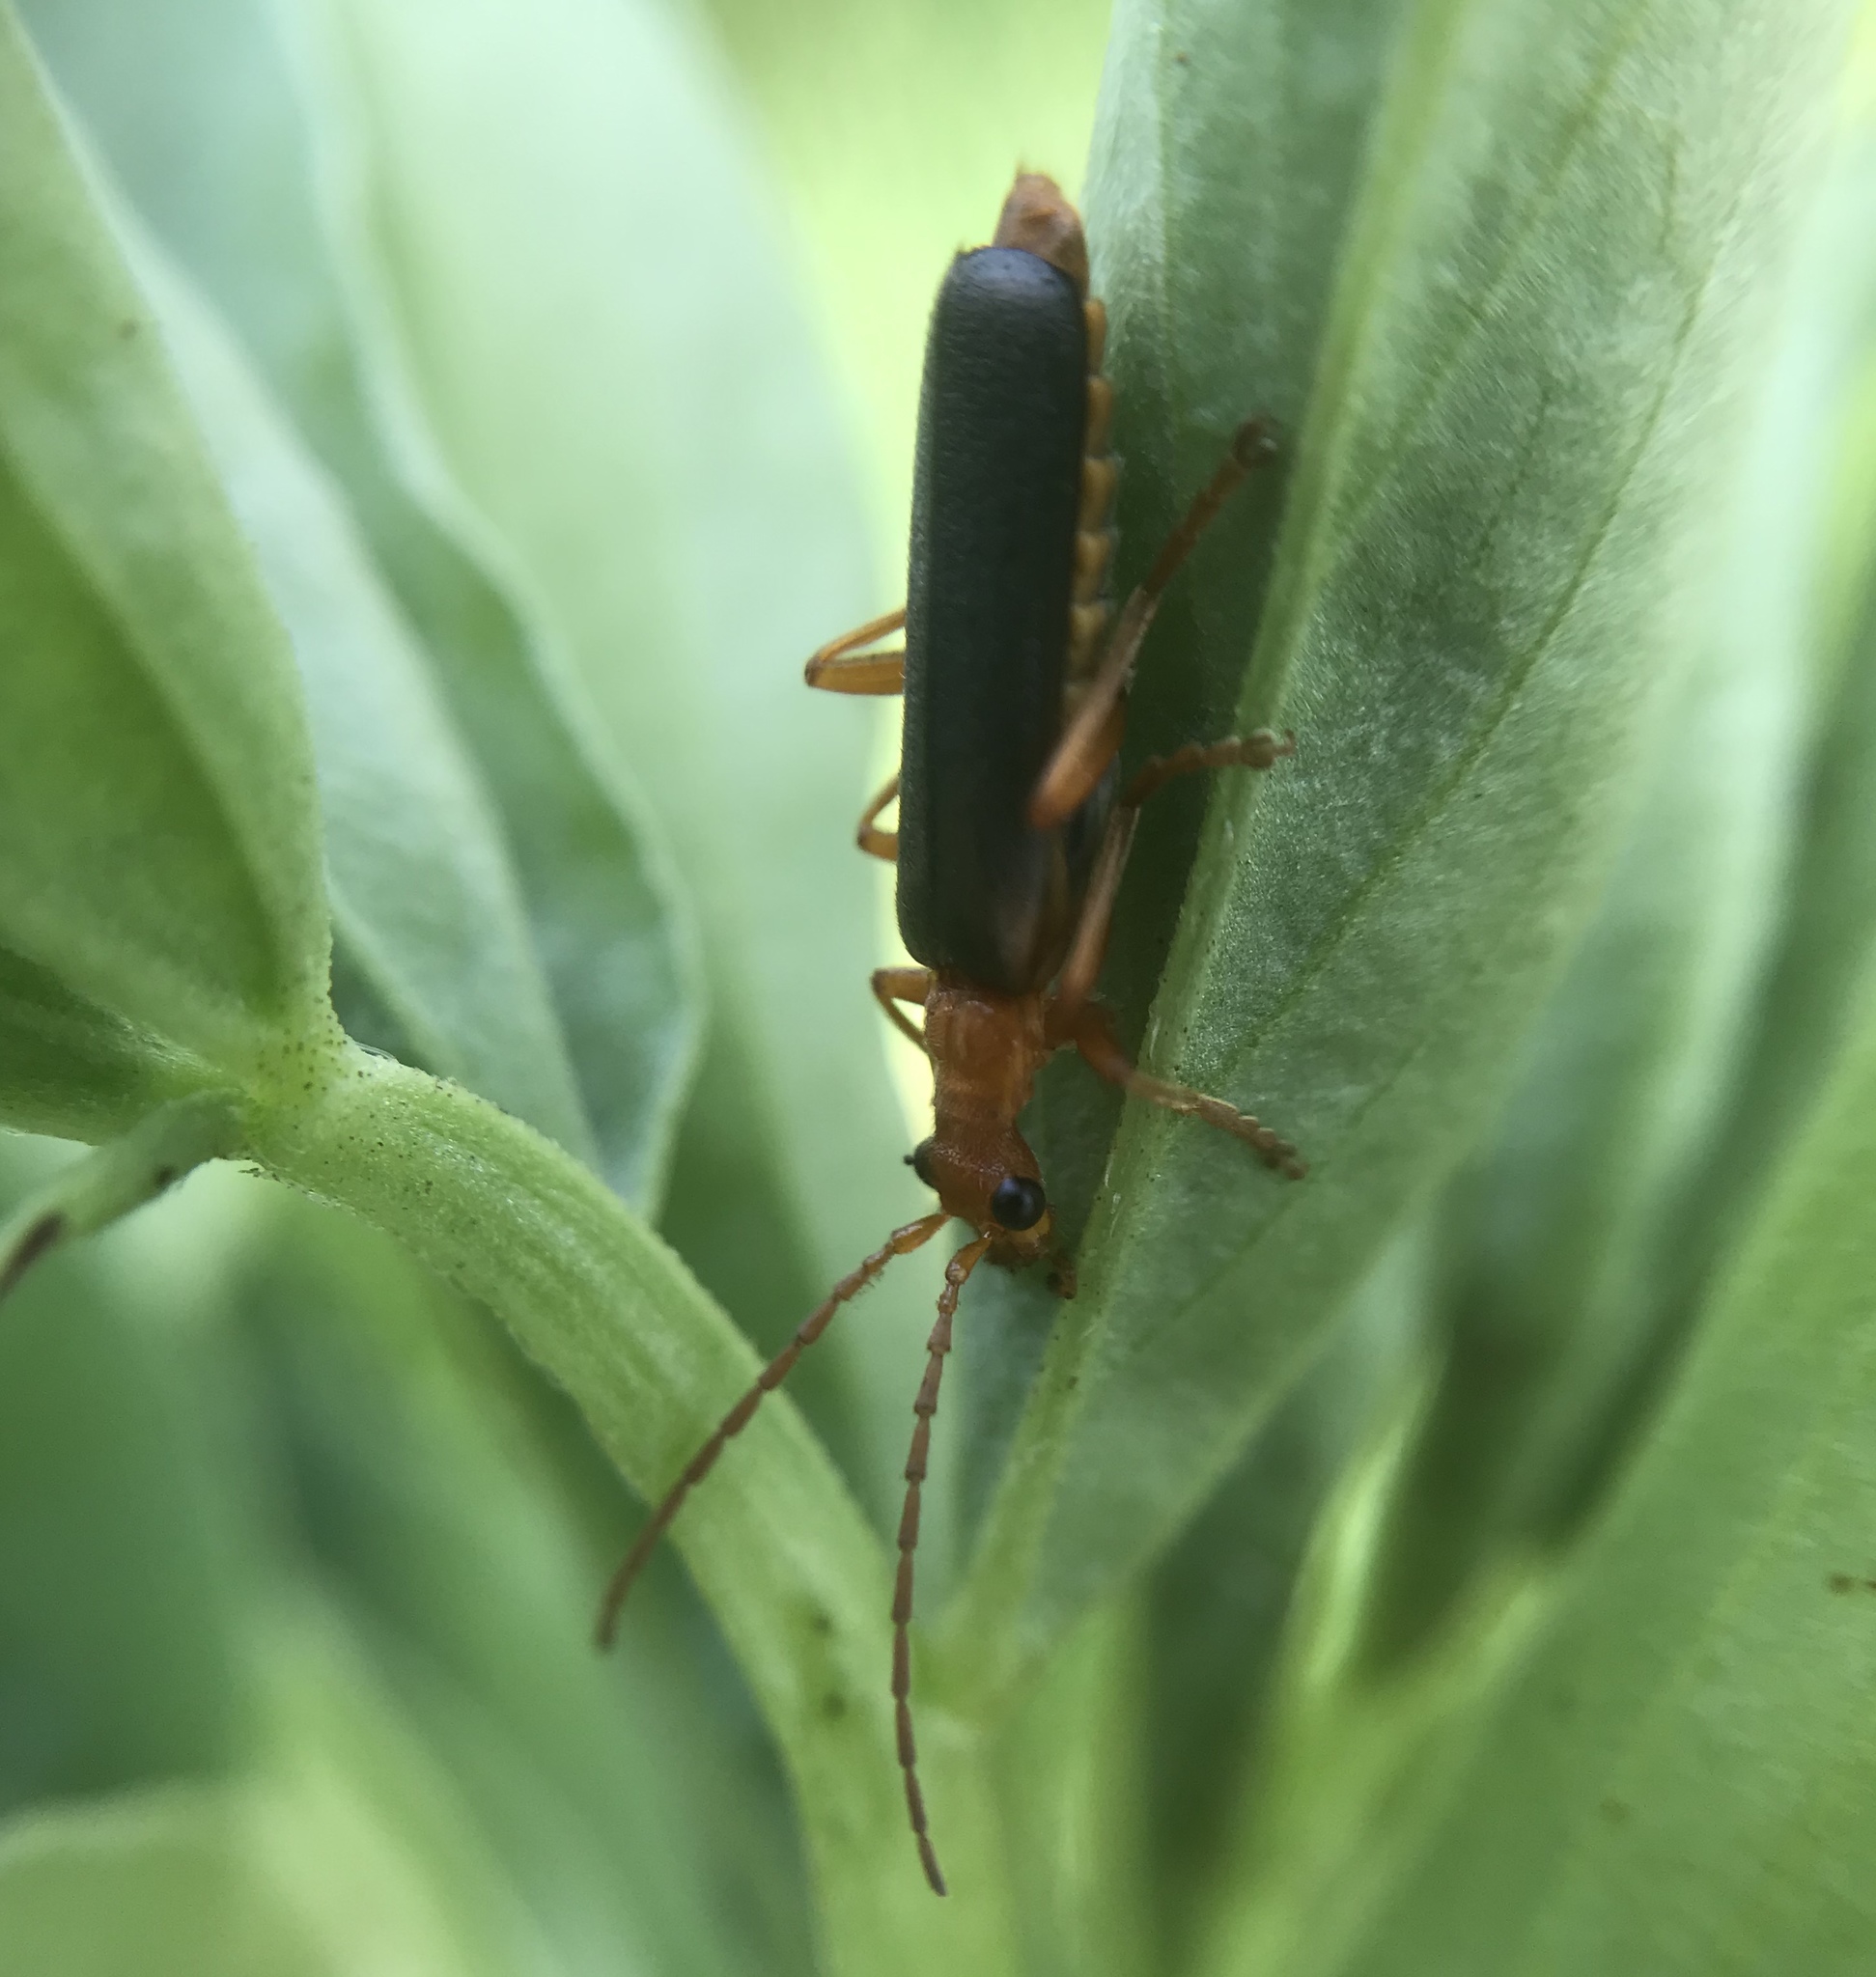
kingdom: Animalia
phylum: Arthropoda
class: Insecta
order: Coleoptera
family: Cantharidae
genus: Podabrus
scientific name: Podabrus pruinosus
